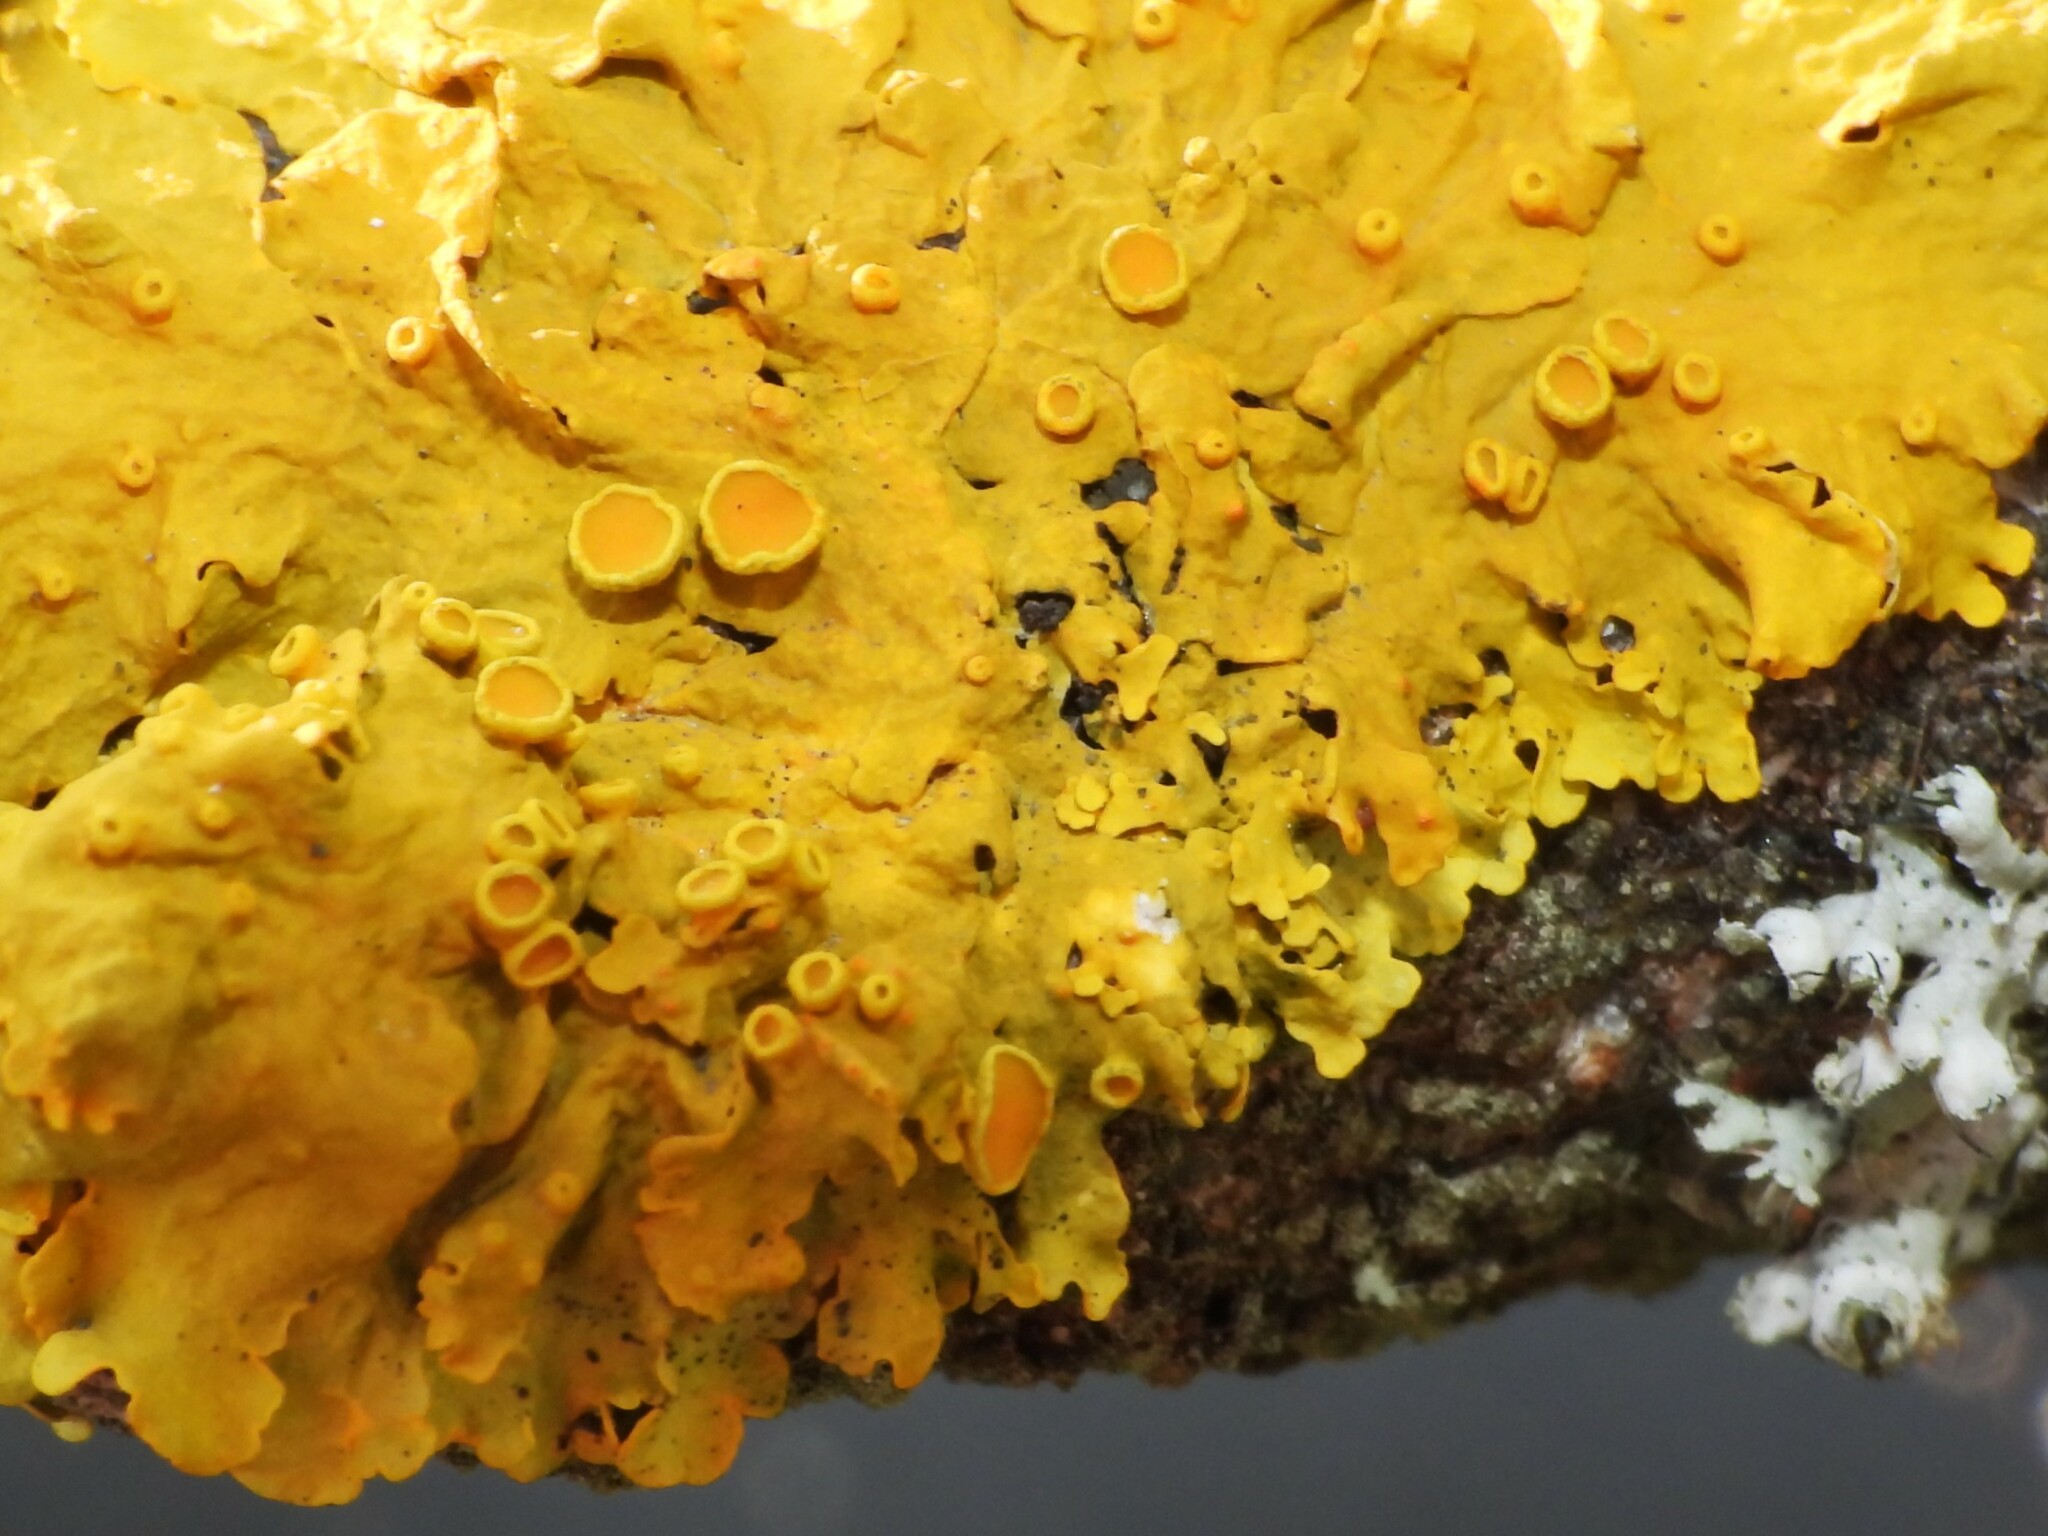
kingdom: Fungi
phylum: Ascomycota
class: Lecanoromycetes
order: Teloschistales
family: Teloschistaceae
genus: Xanthoria
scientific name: Xanthoria parietina
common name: Common orange lichen
